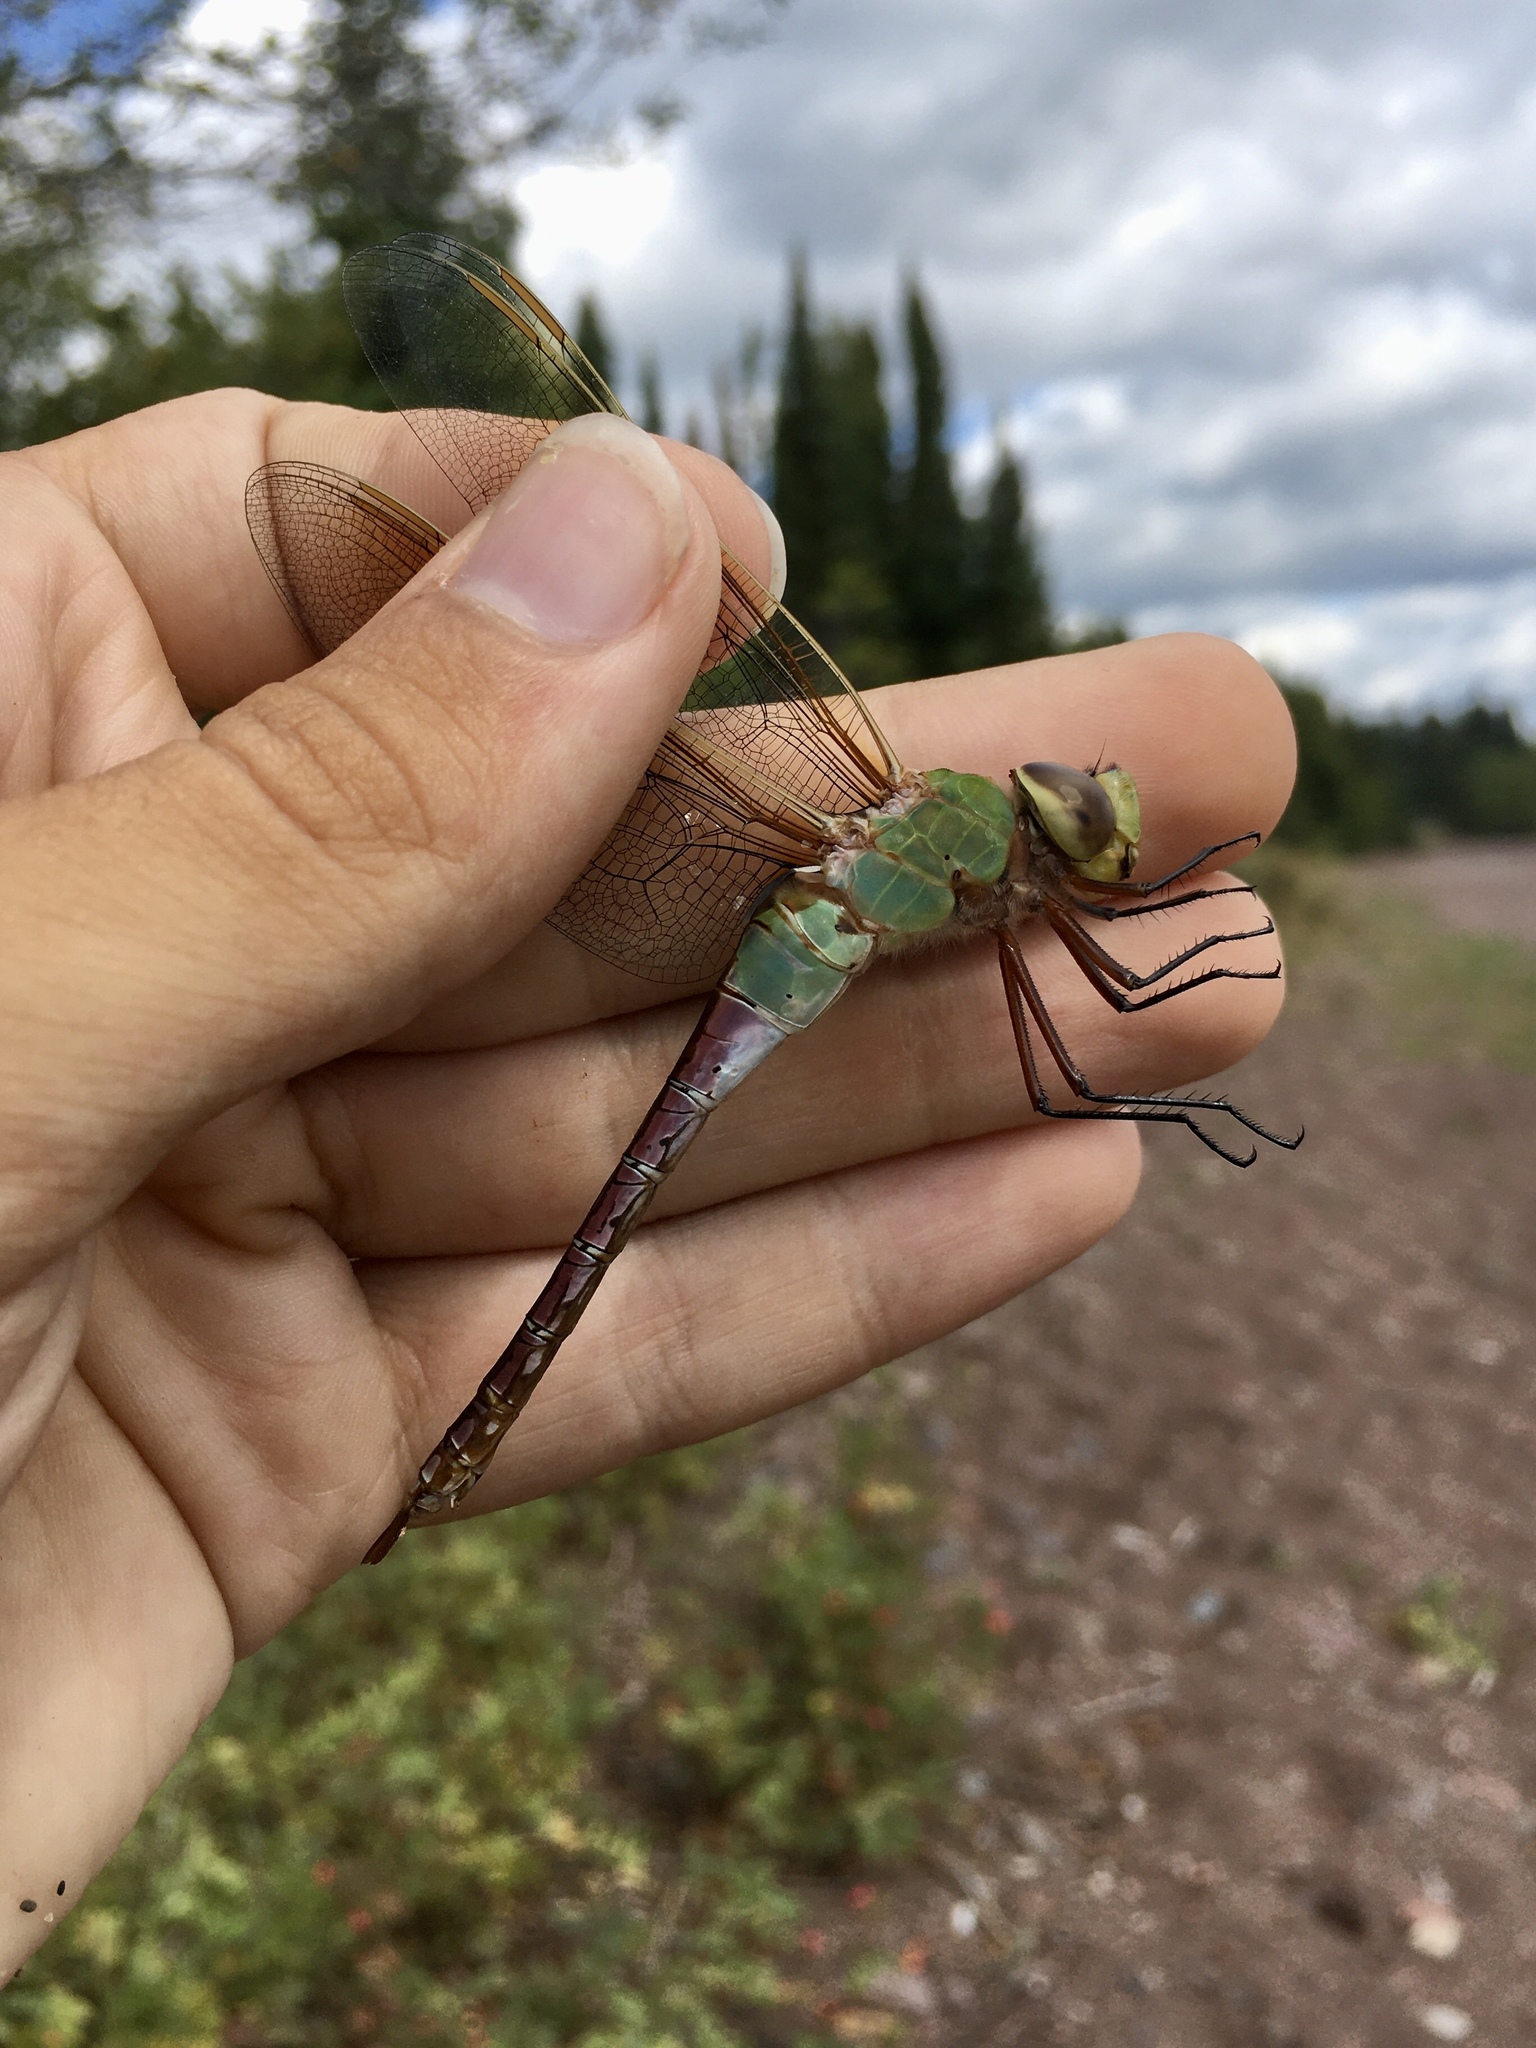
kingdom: Animalia
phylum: Arthropoda
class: Insecta
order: Odonata
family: Aeshnidae
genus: Anax
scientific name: Anax junius
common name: Common green darner
